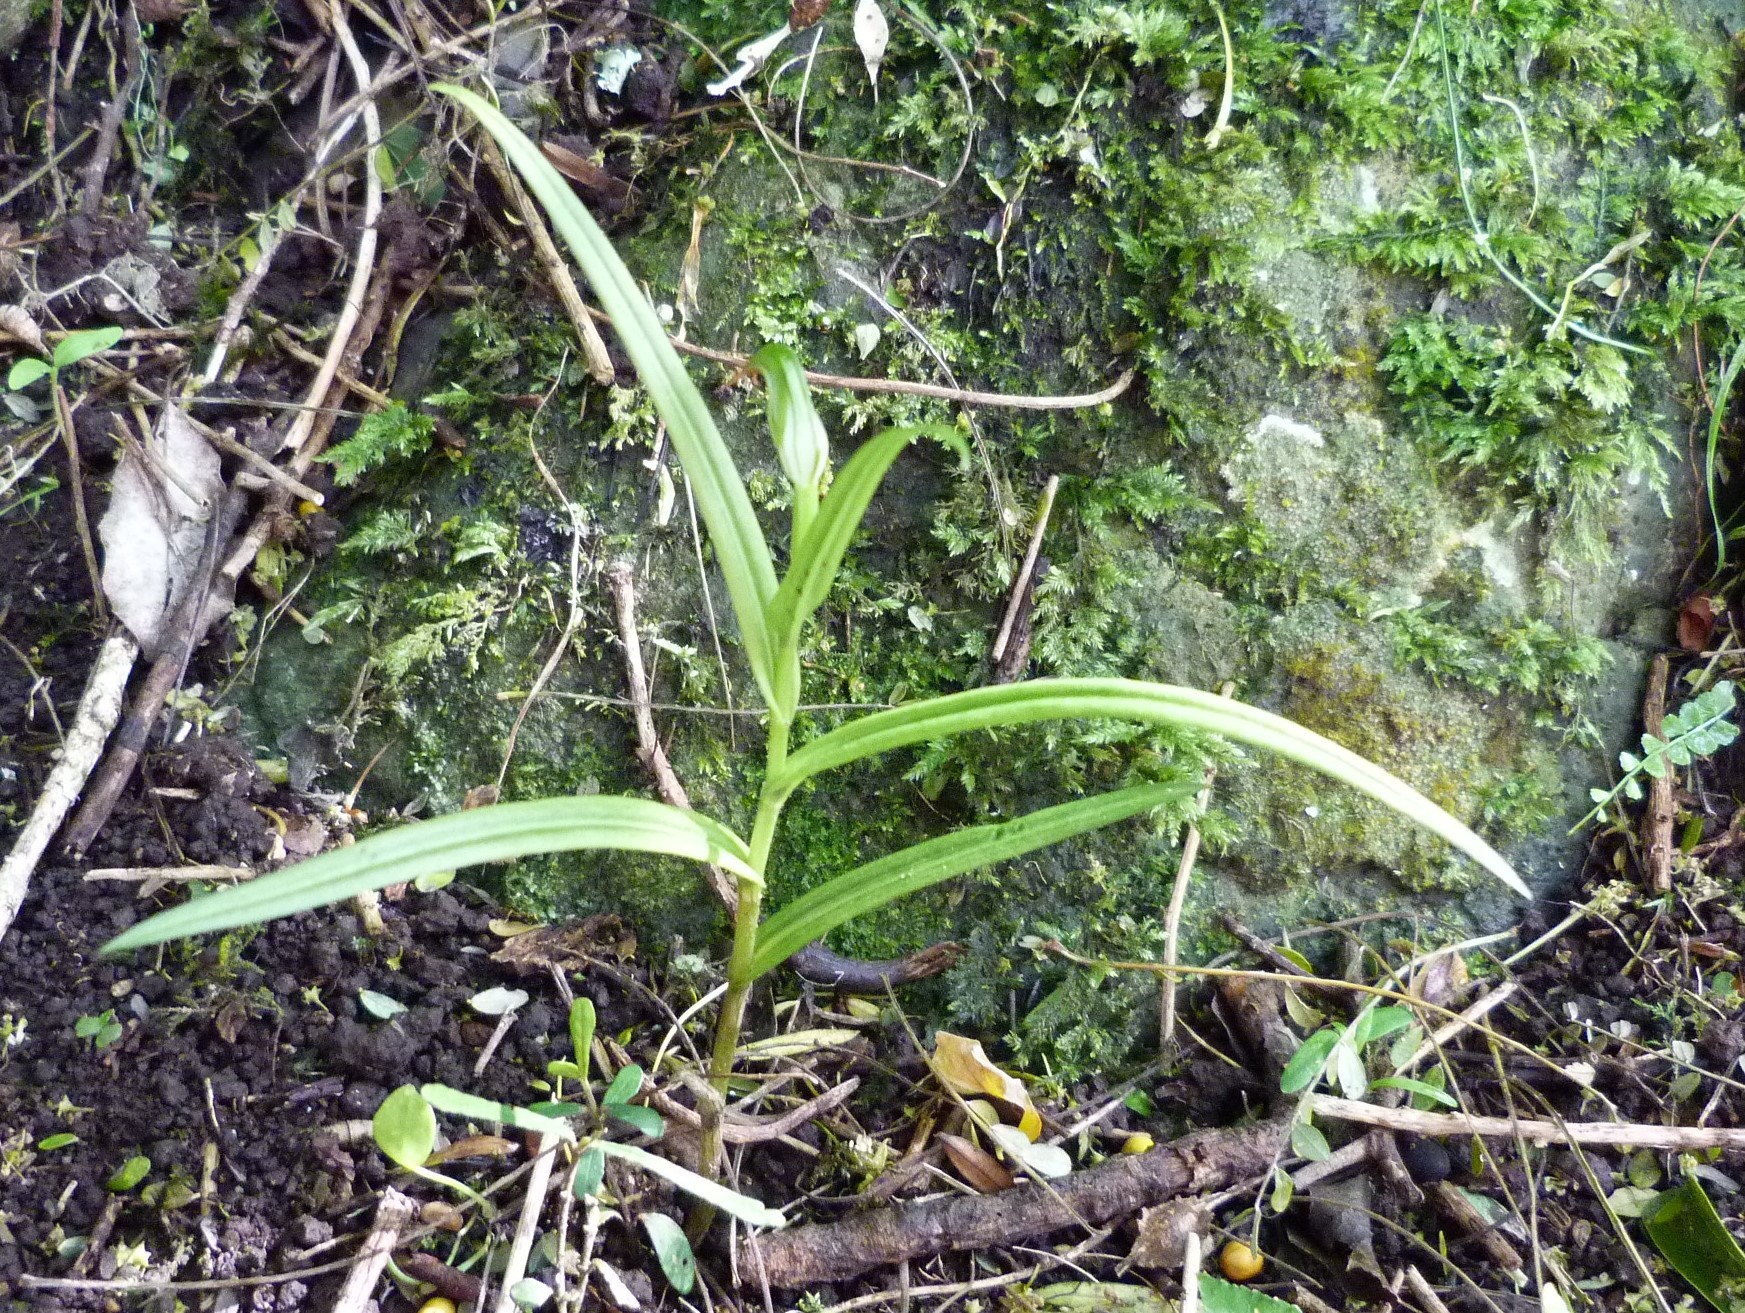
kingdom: Plantae
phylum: Tracheophyta
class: Liliopsida
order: Asparagales
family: Orchidaceae
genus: Pterostylis
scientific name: Pterostylis graminea
